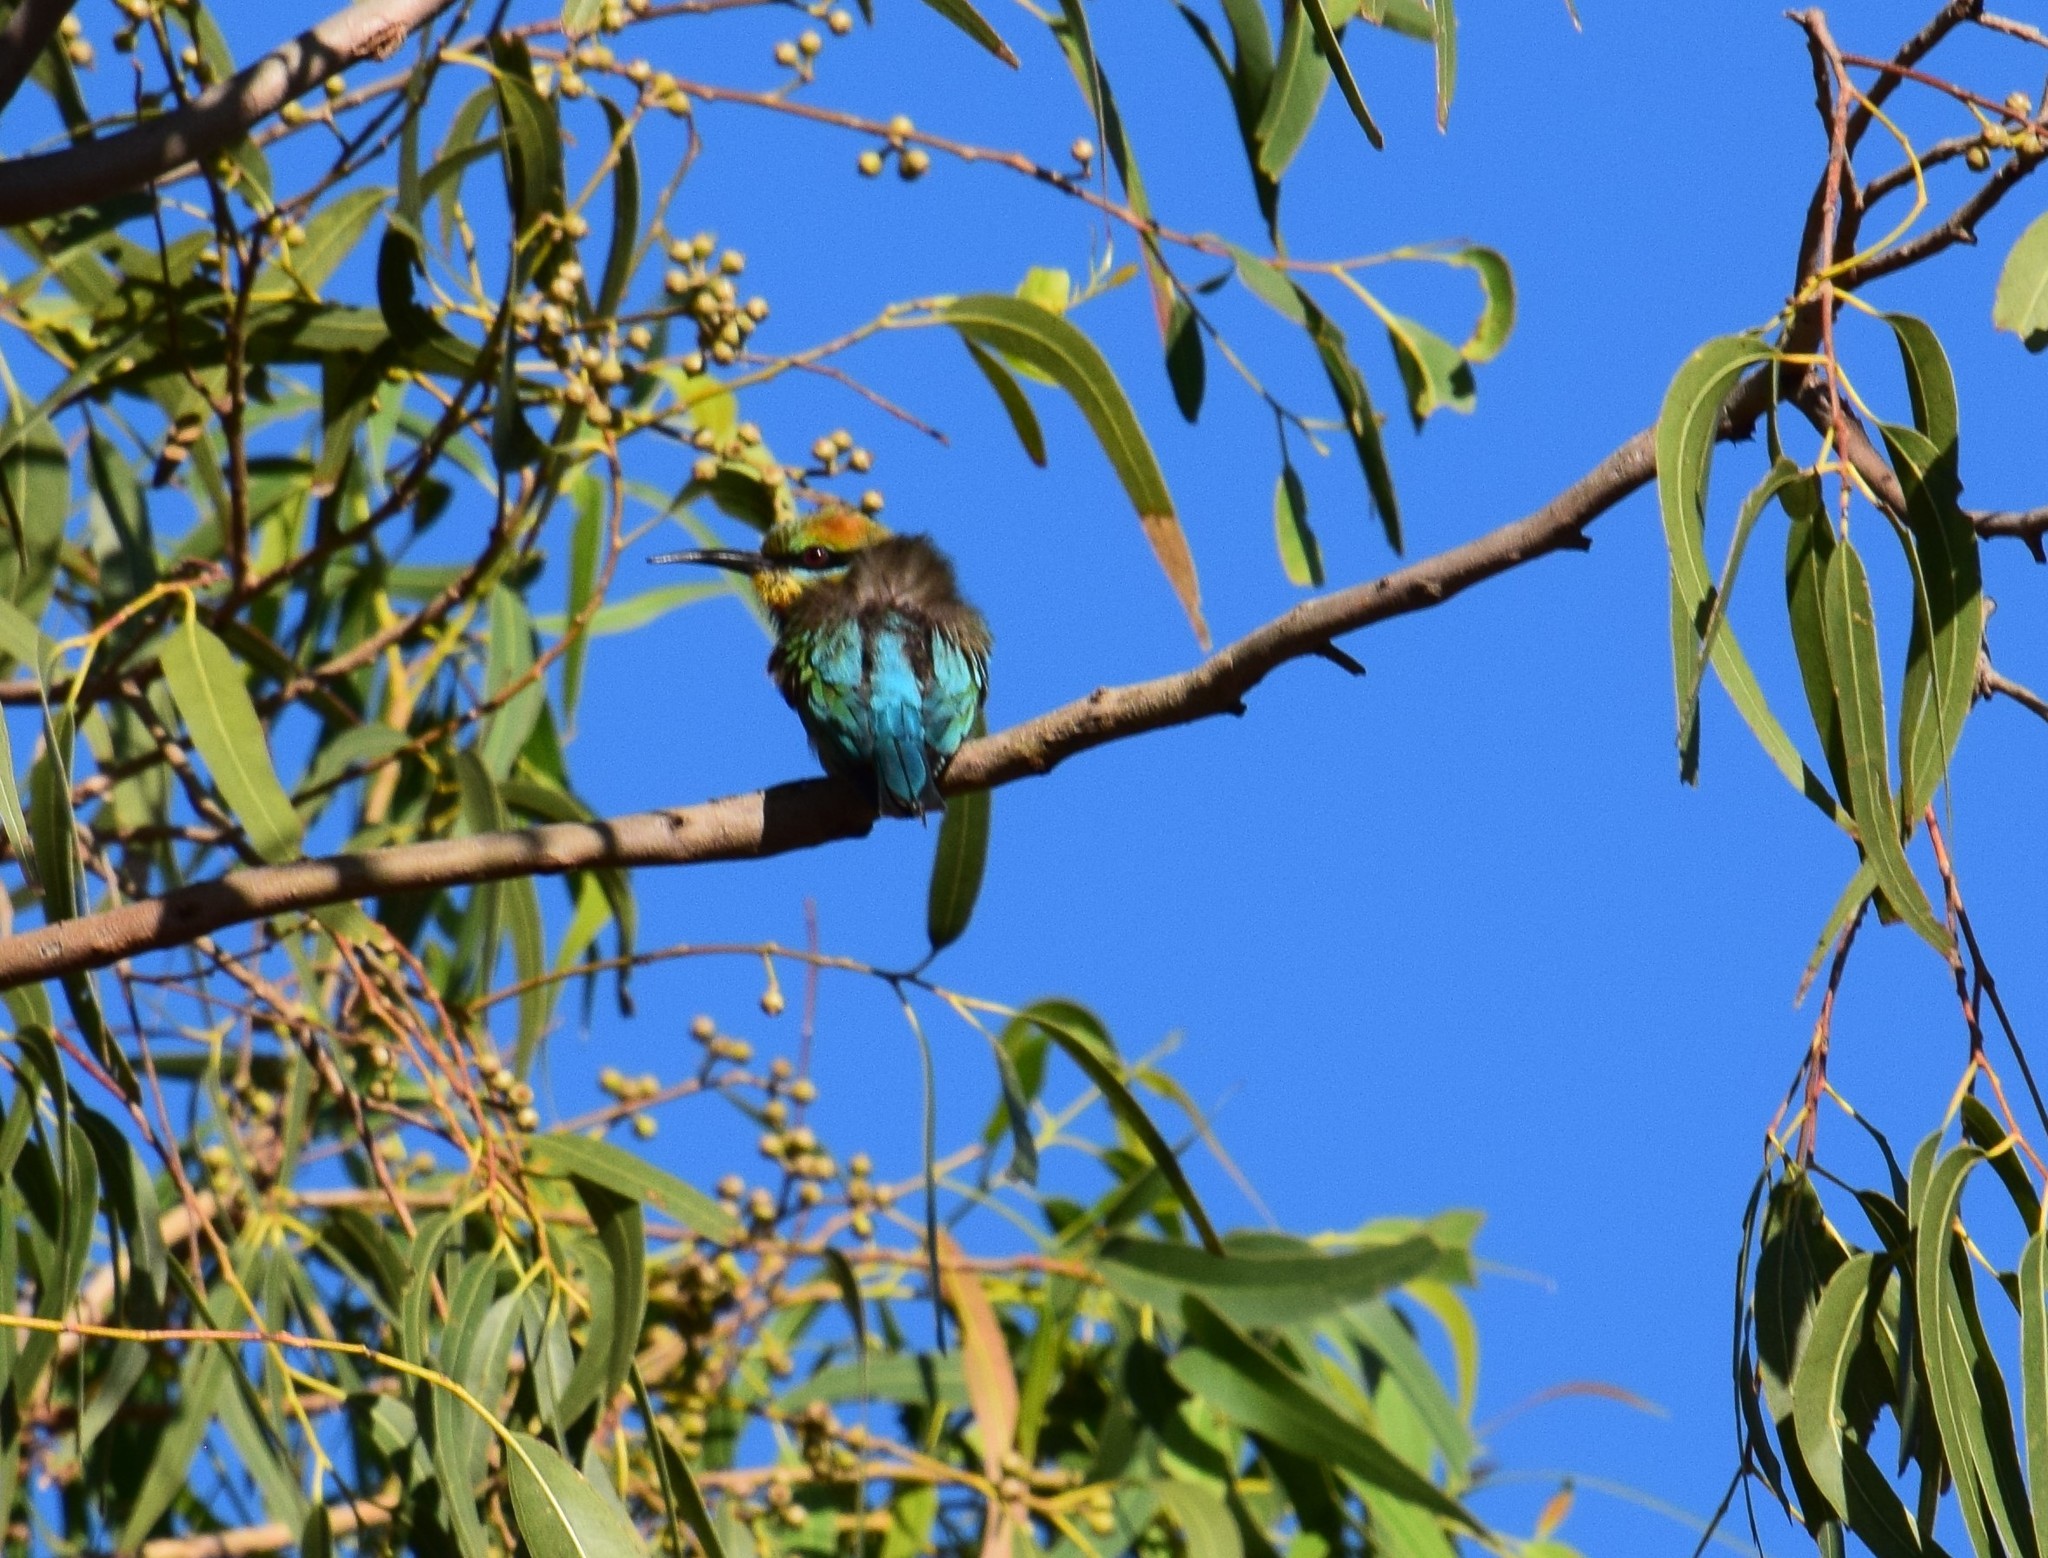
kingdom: Animalia
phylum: Chordata
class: Aves
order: Coraciiformes
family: Meropidae
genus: Merops
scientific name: Merops ornatus
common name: Rainbow bee-eater
